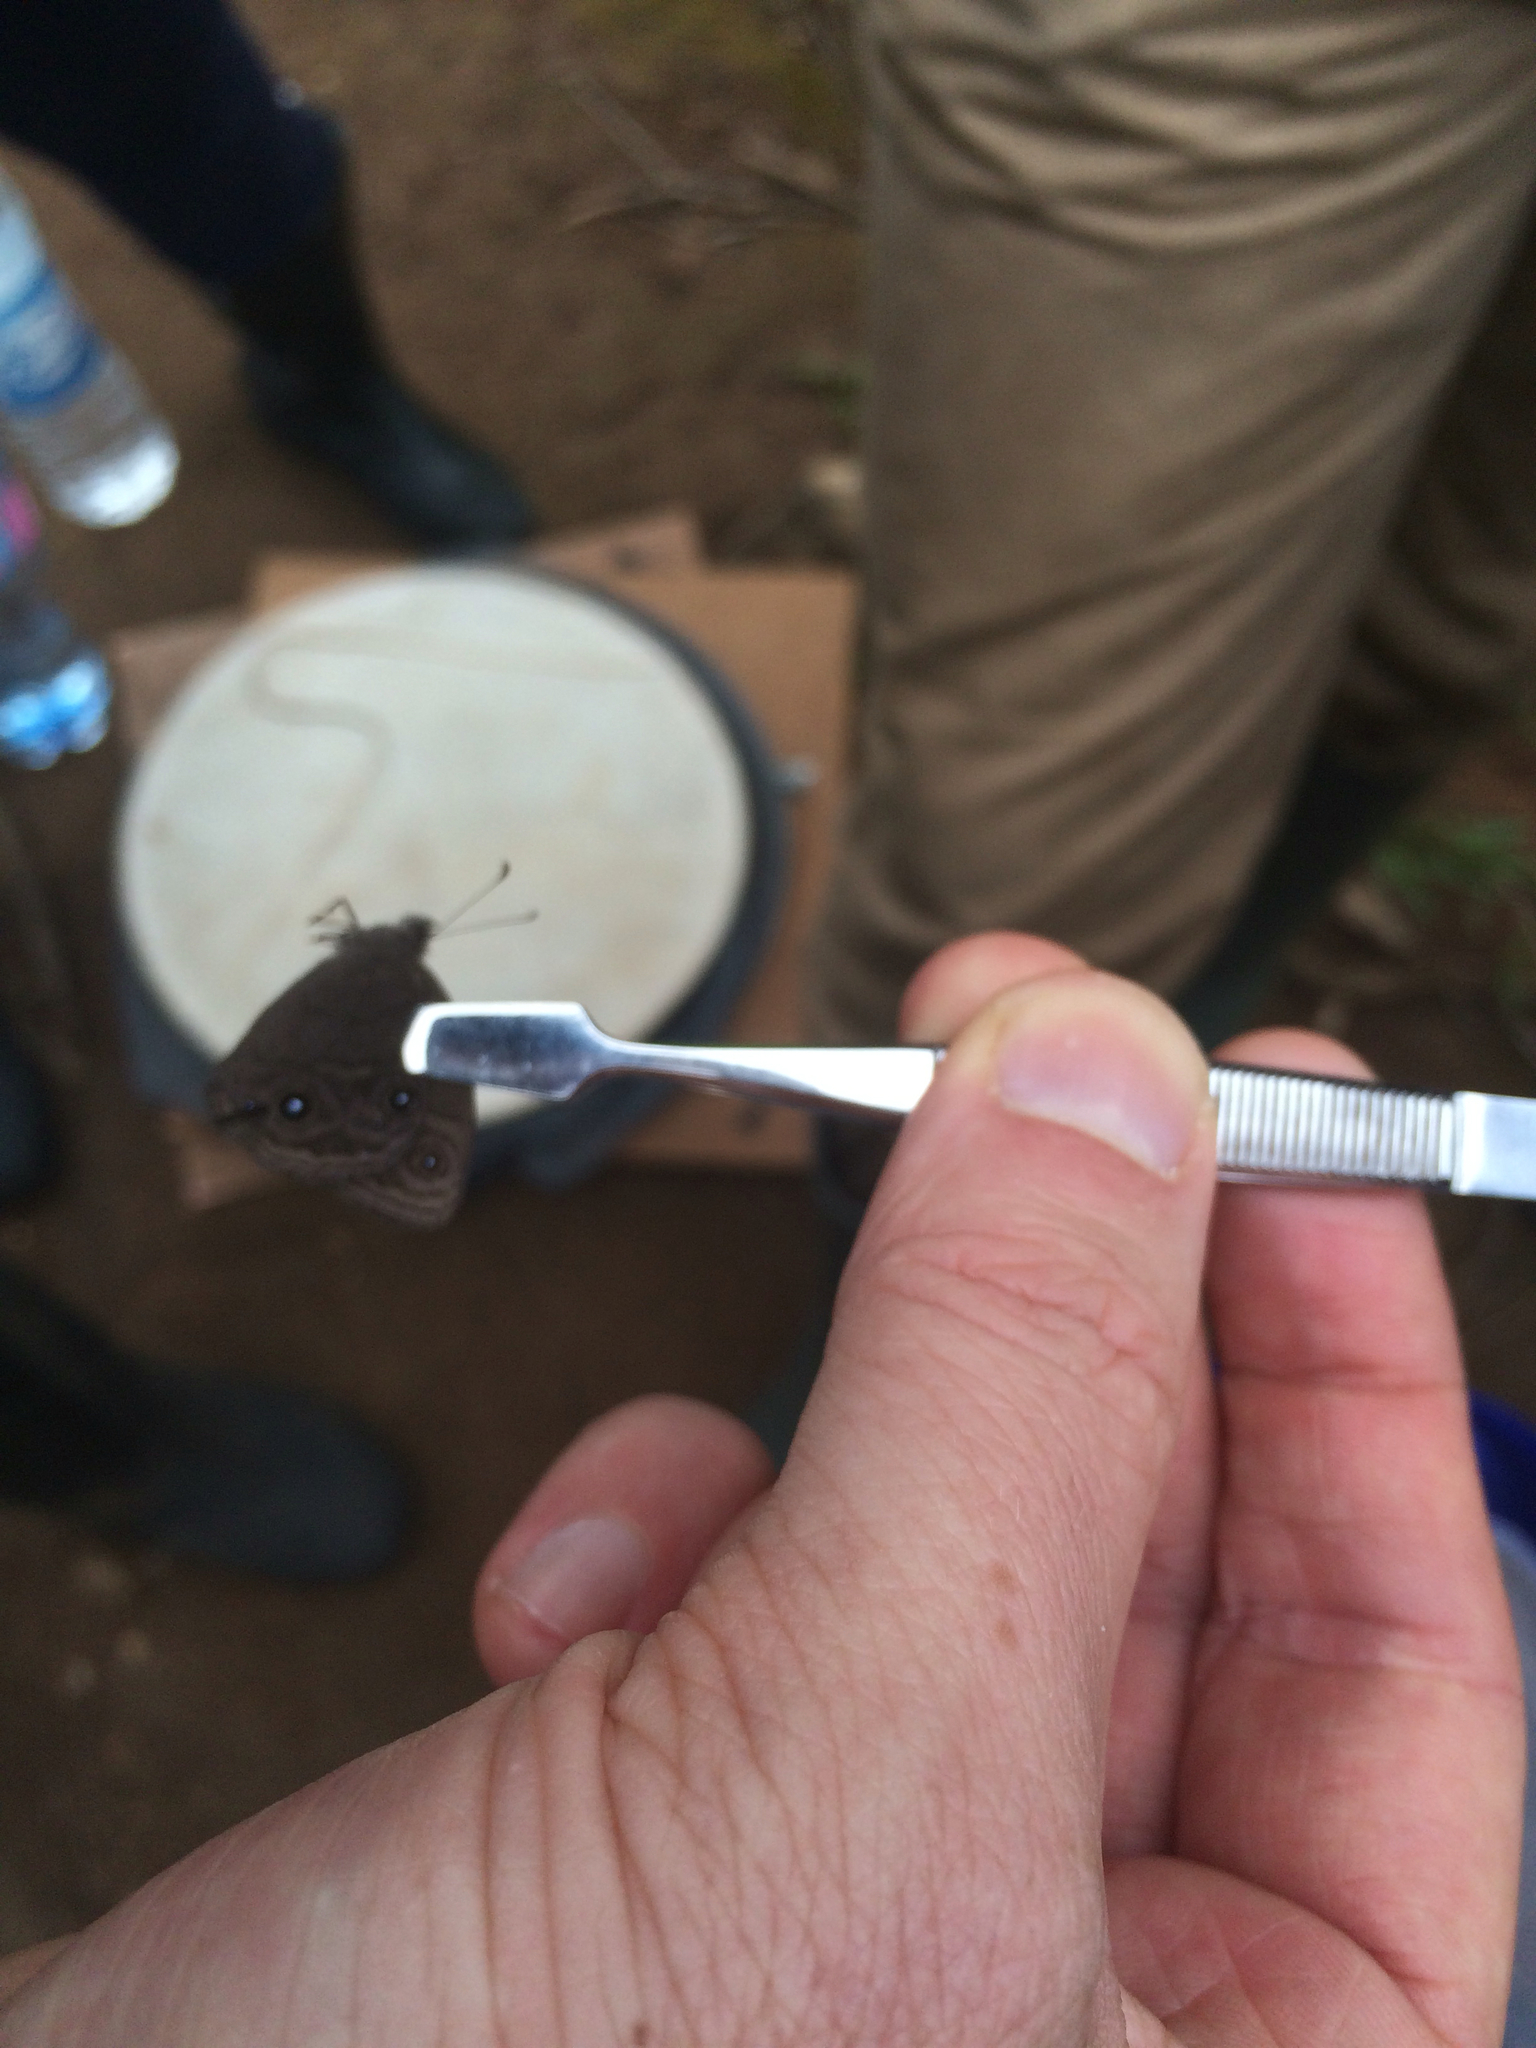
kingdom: Animalia
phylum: Arthropoda
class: Insecta
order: Lepidoptera
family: Nymphalidae
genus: Mycalesis
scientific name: Mycalesis milyas
